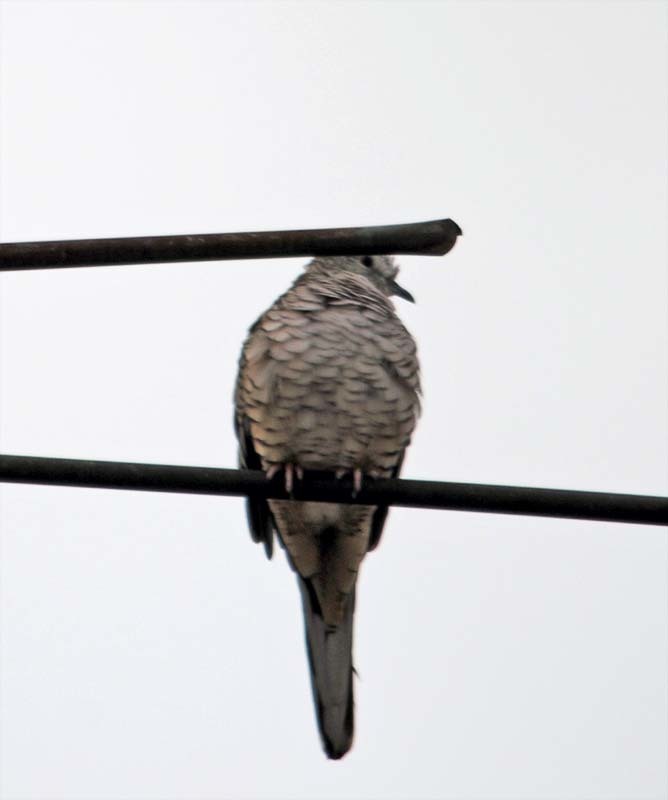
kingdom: Animalia
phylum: Chordata
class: Aves
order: Columbiformes
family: Columbidae
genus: Columbina
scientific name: Columbina inca
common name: Inca dove
